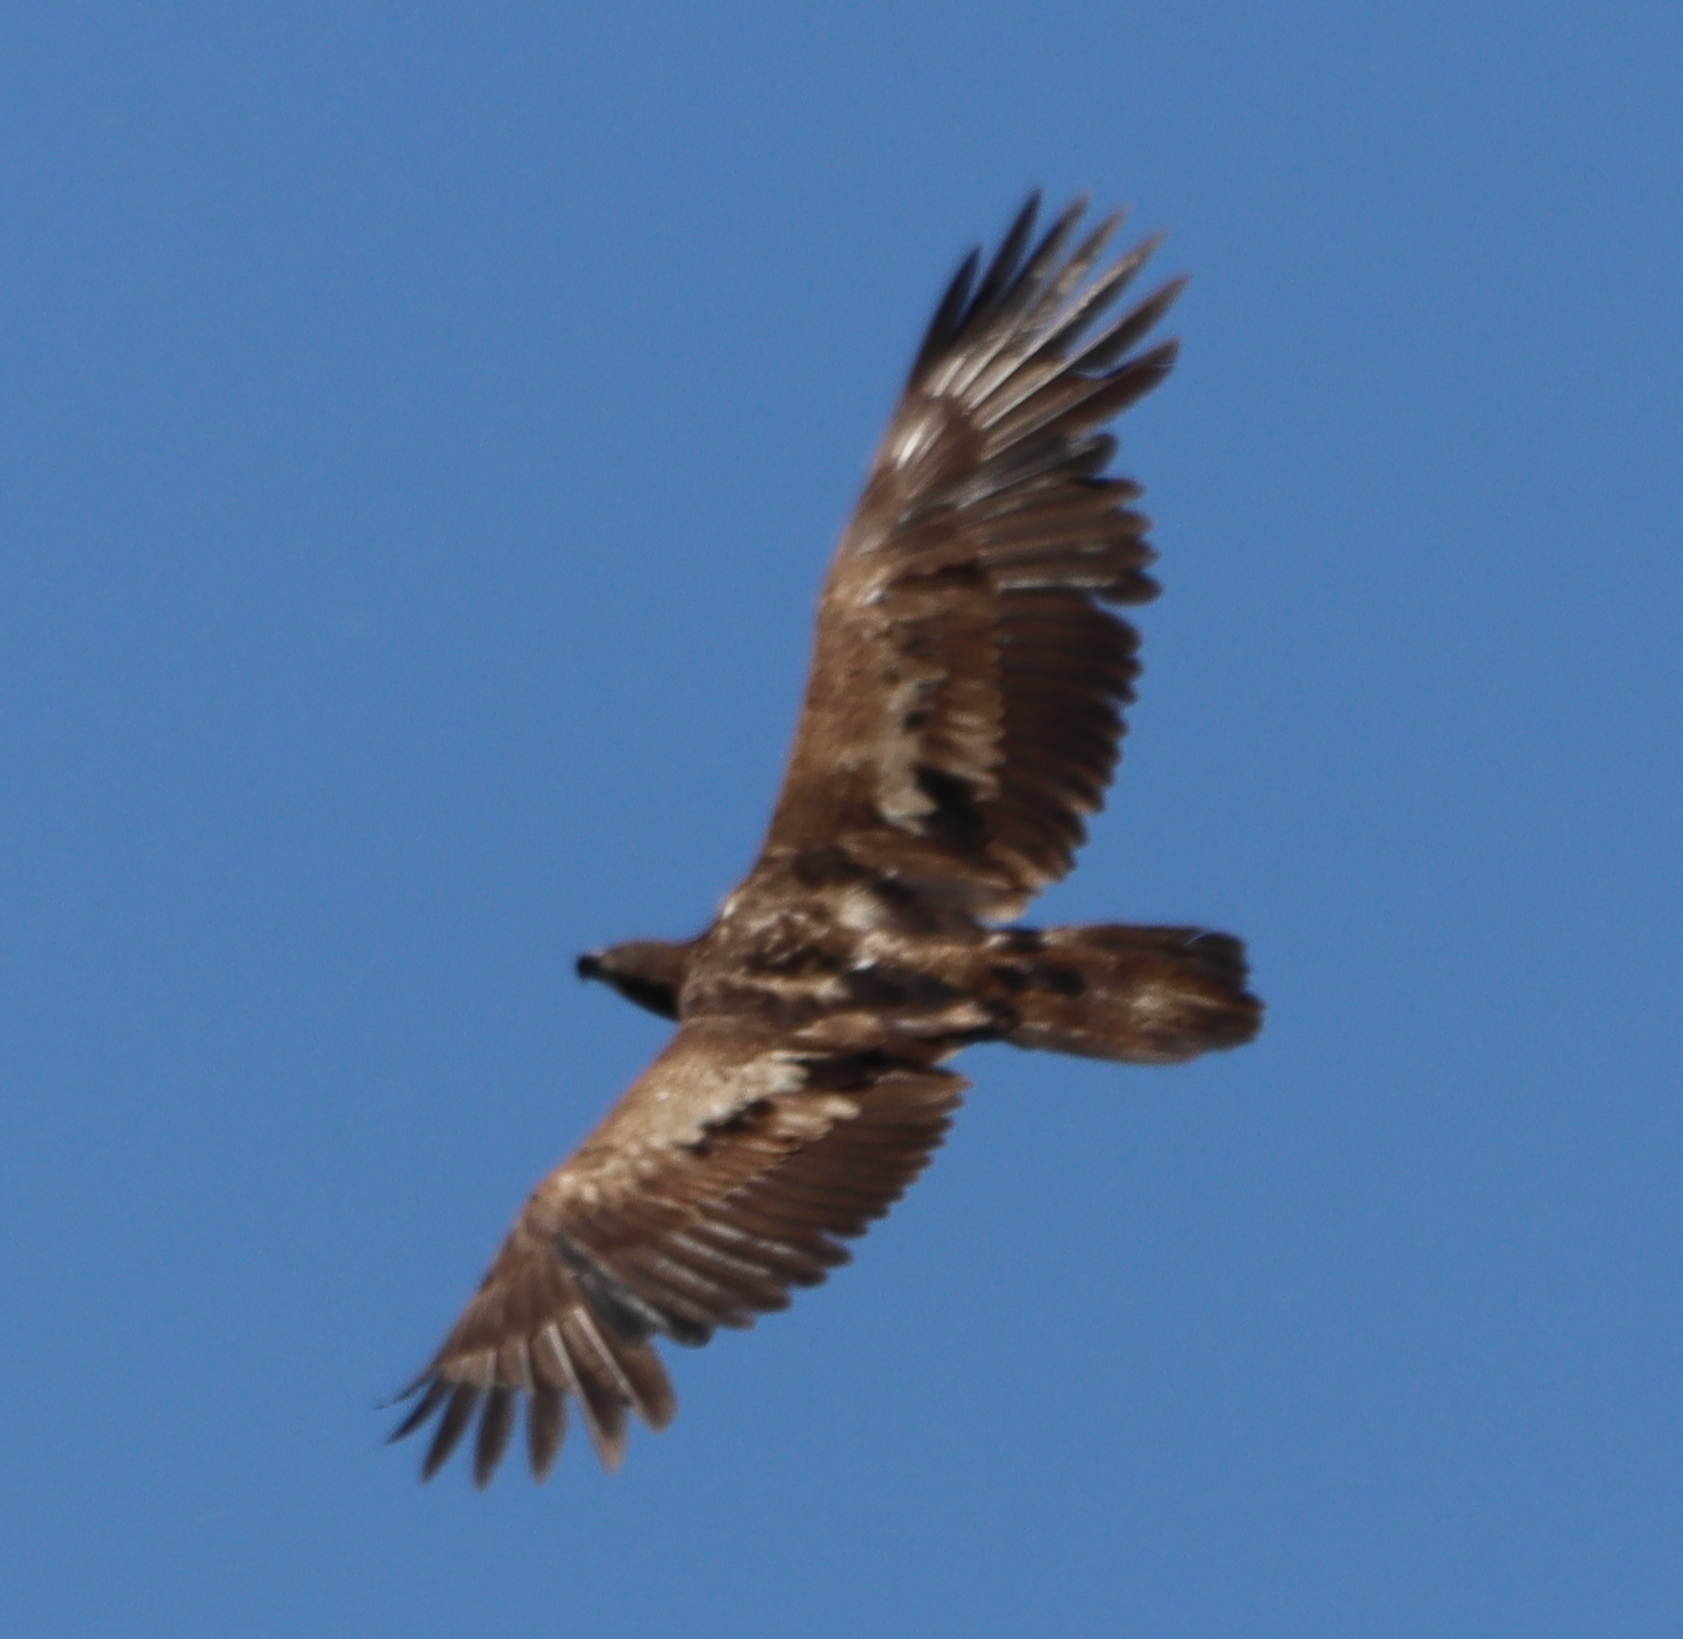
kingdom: Animalia
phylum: Chordata
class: Aves
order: Accipitriformes
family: Accipitridae
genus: Haliaeetus
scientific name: Haliaeetus leucocephalus
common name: Bald eagle
